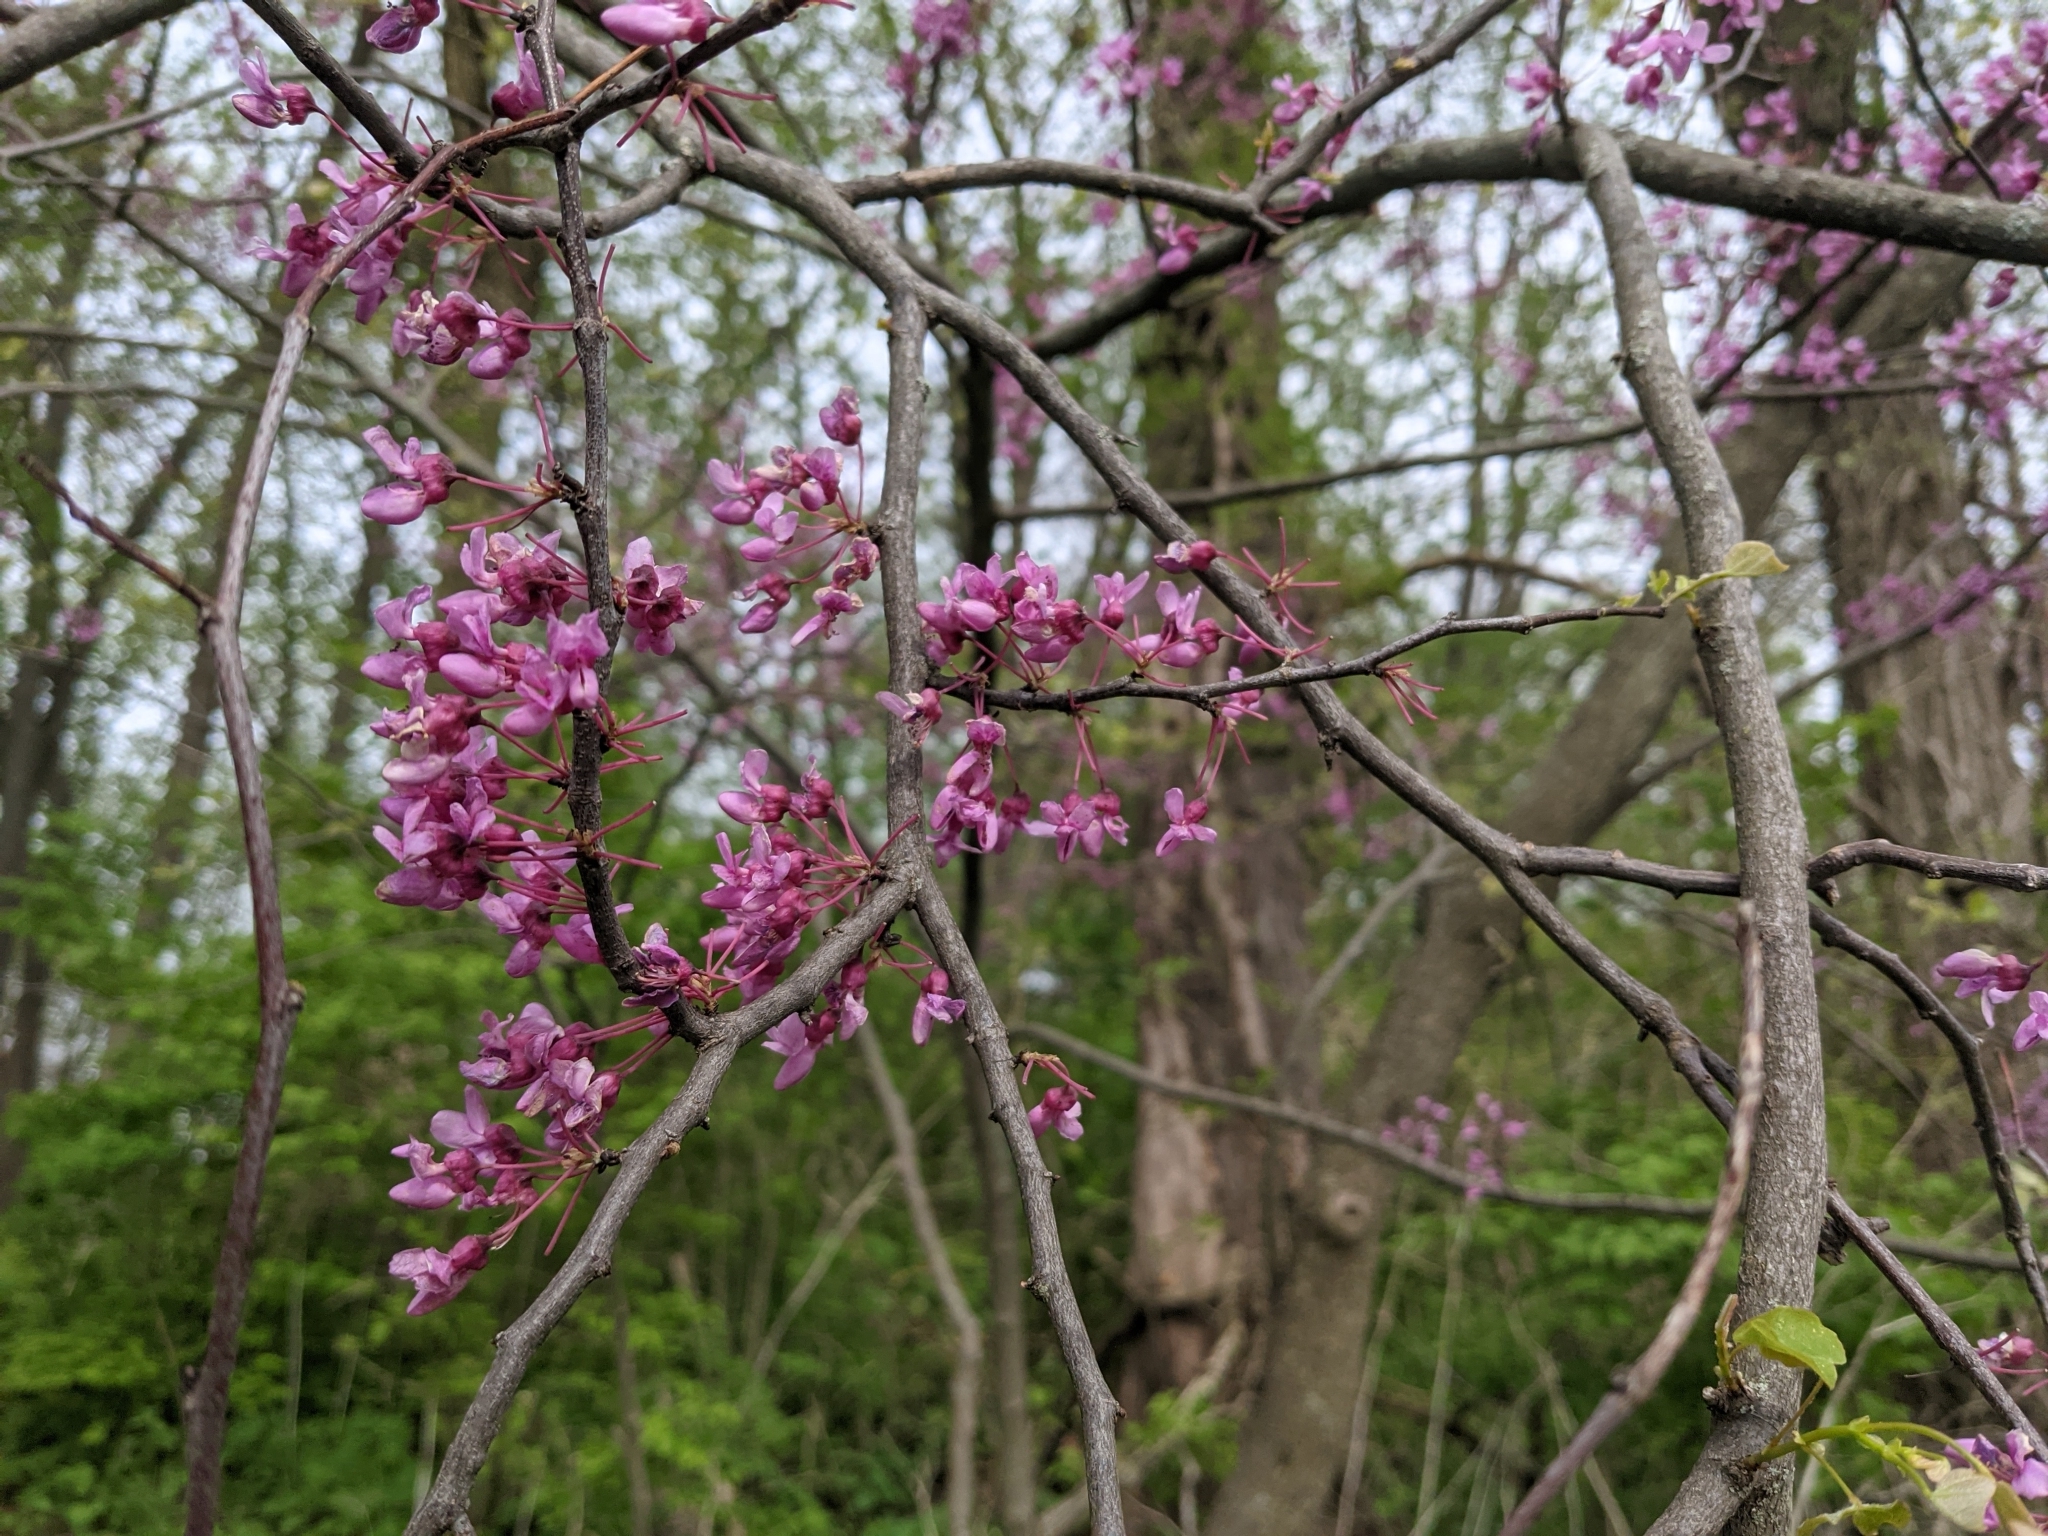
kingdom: Plantae
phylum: Tracheophyta
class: Magnoliopsida
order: Fabales
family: Fabaceae
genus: Cercis
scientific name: Cercis canadensis
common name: Eastern redbud
